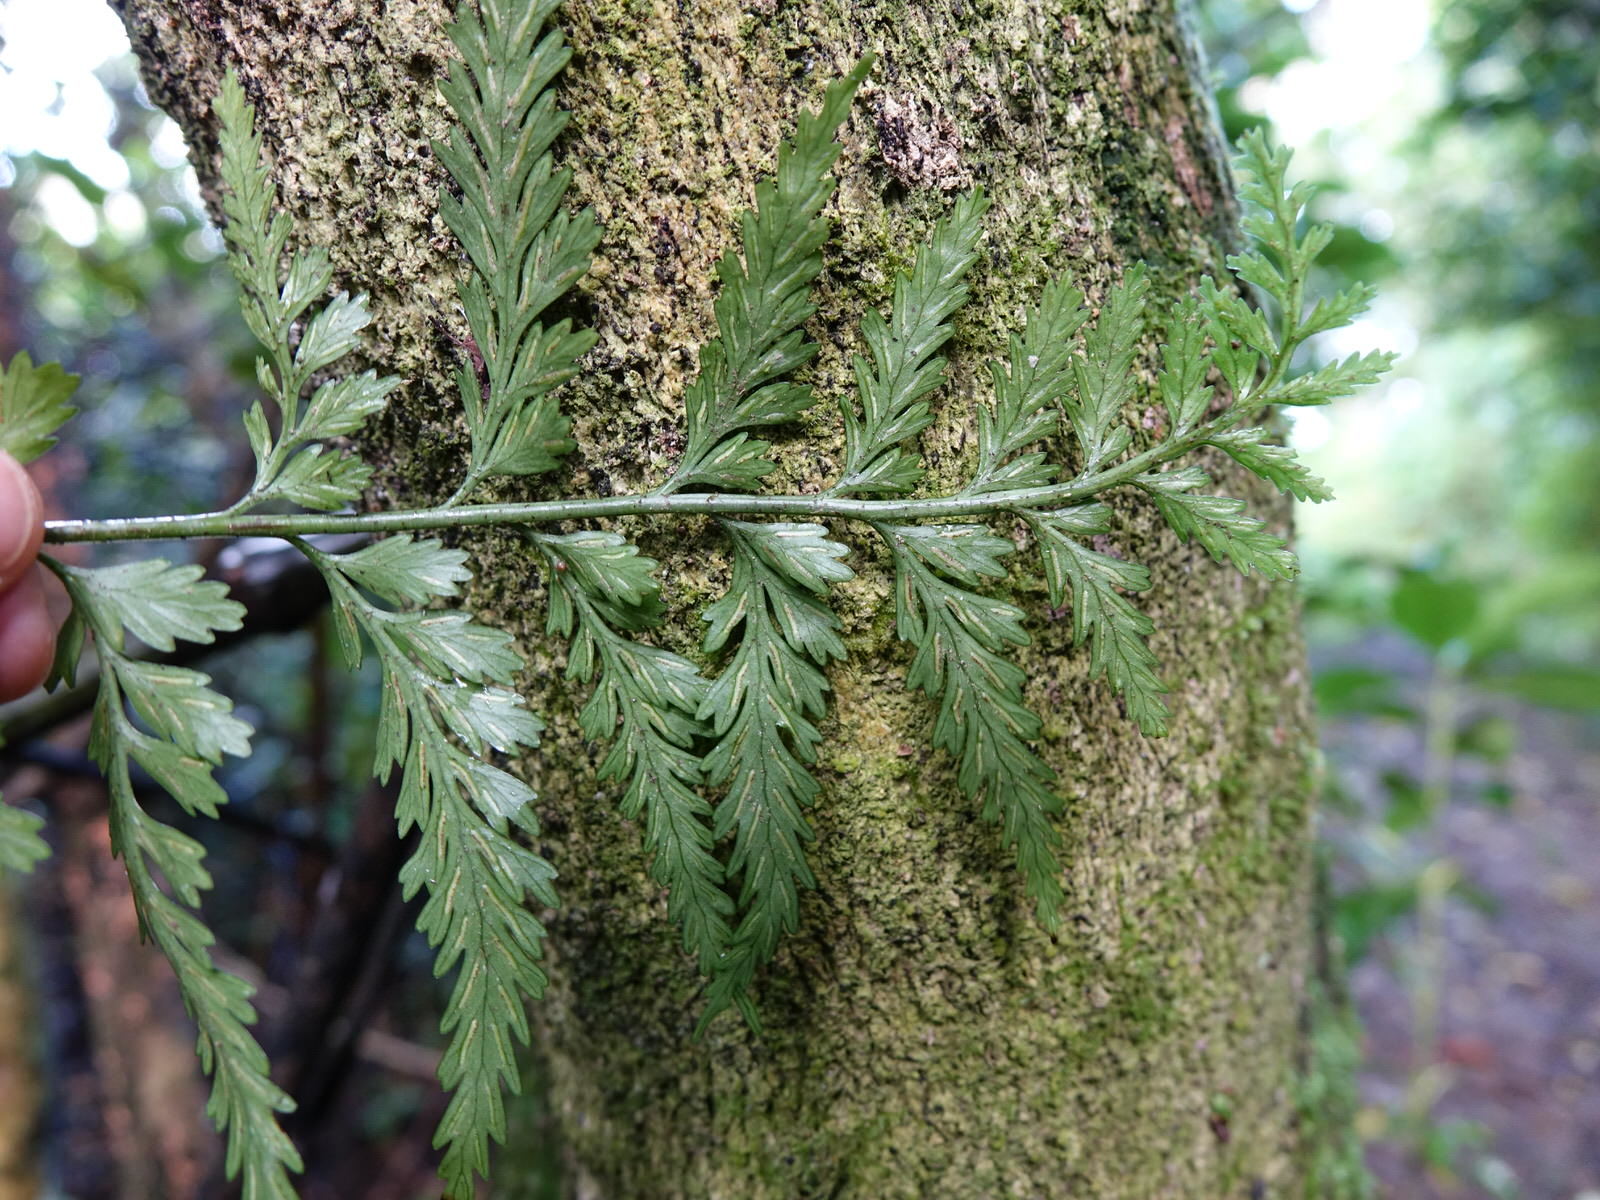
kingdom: Plantae
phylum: Tracheophyta
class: Polypodiopsida
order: Polypodiales
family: Aspleniaceae
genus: Asplenium
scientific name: Asplenium lamprophyllum
